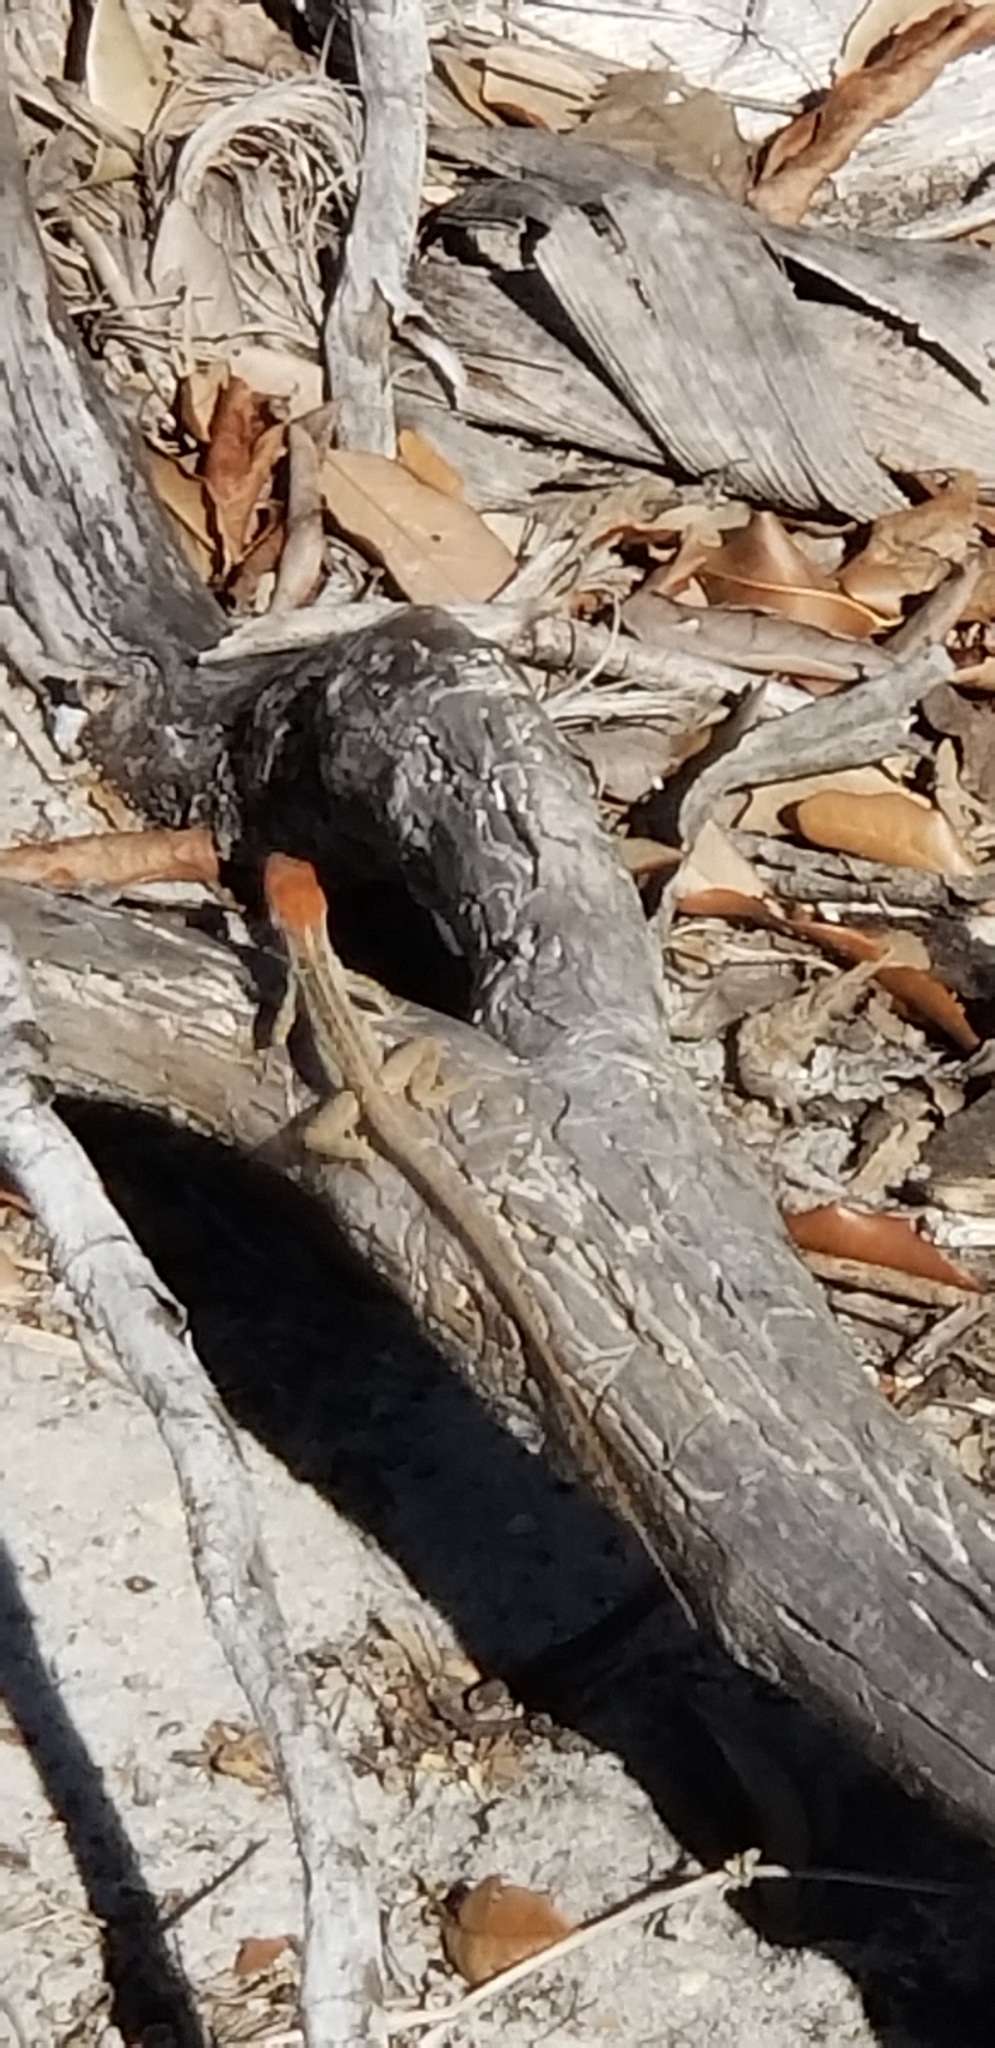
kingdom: Animalia
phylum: Chordata
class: Squamata
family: Dactyloidae
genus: Anolis
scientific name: Anolis sagrei
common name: Brown anole
